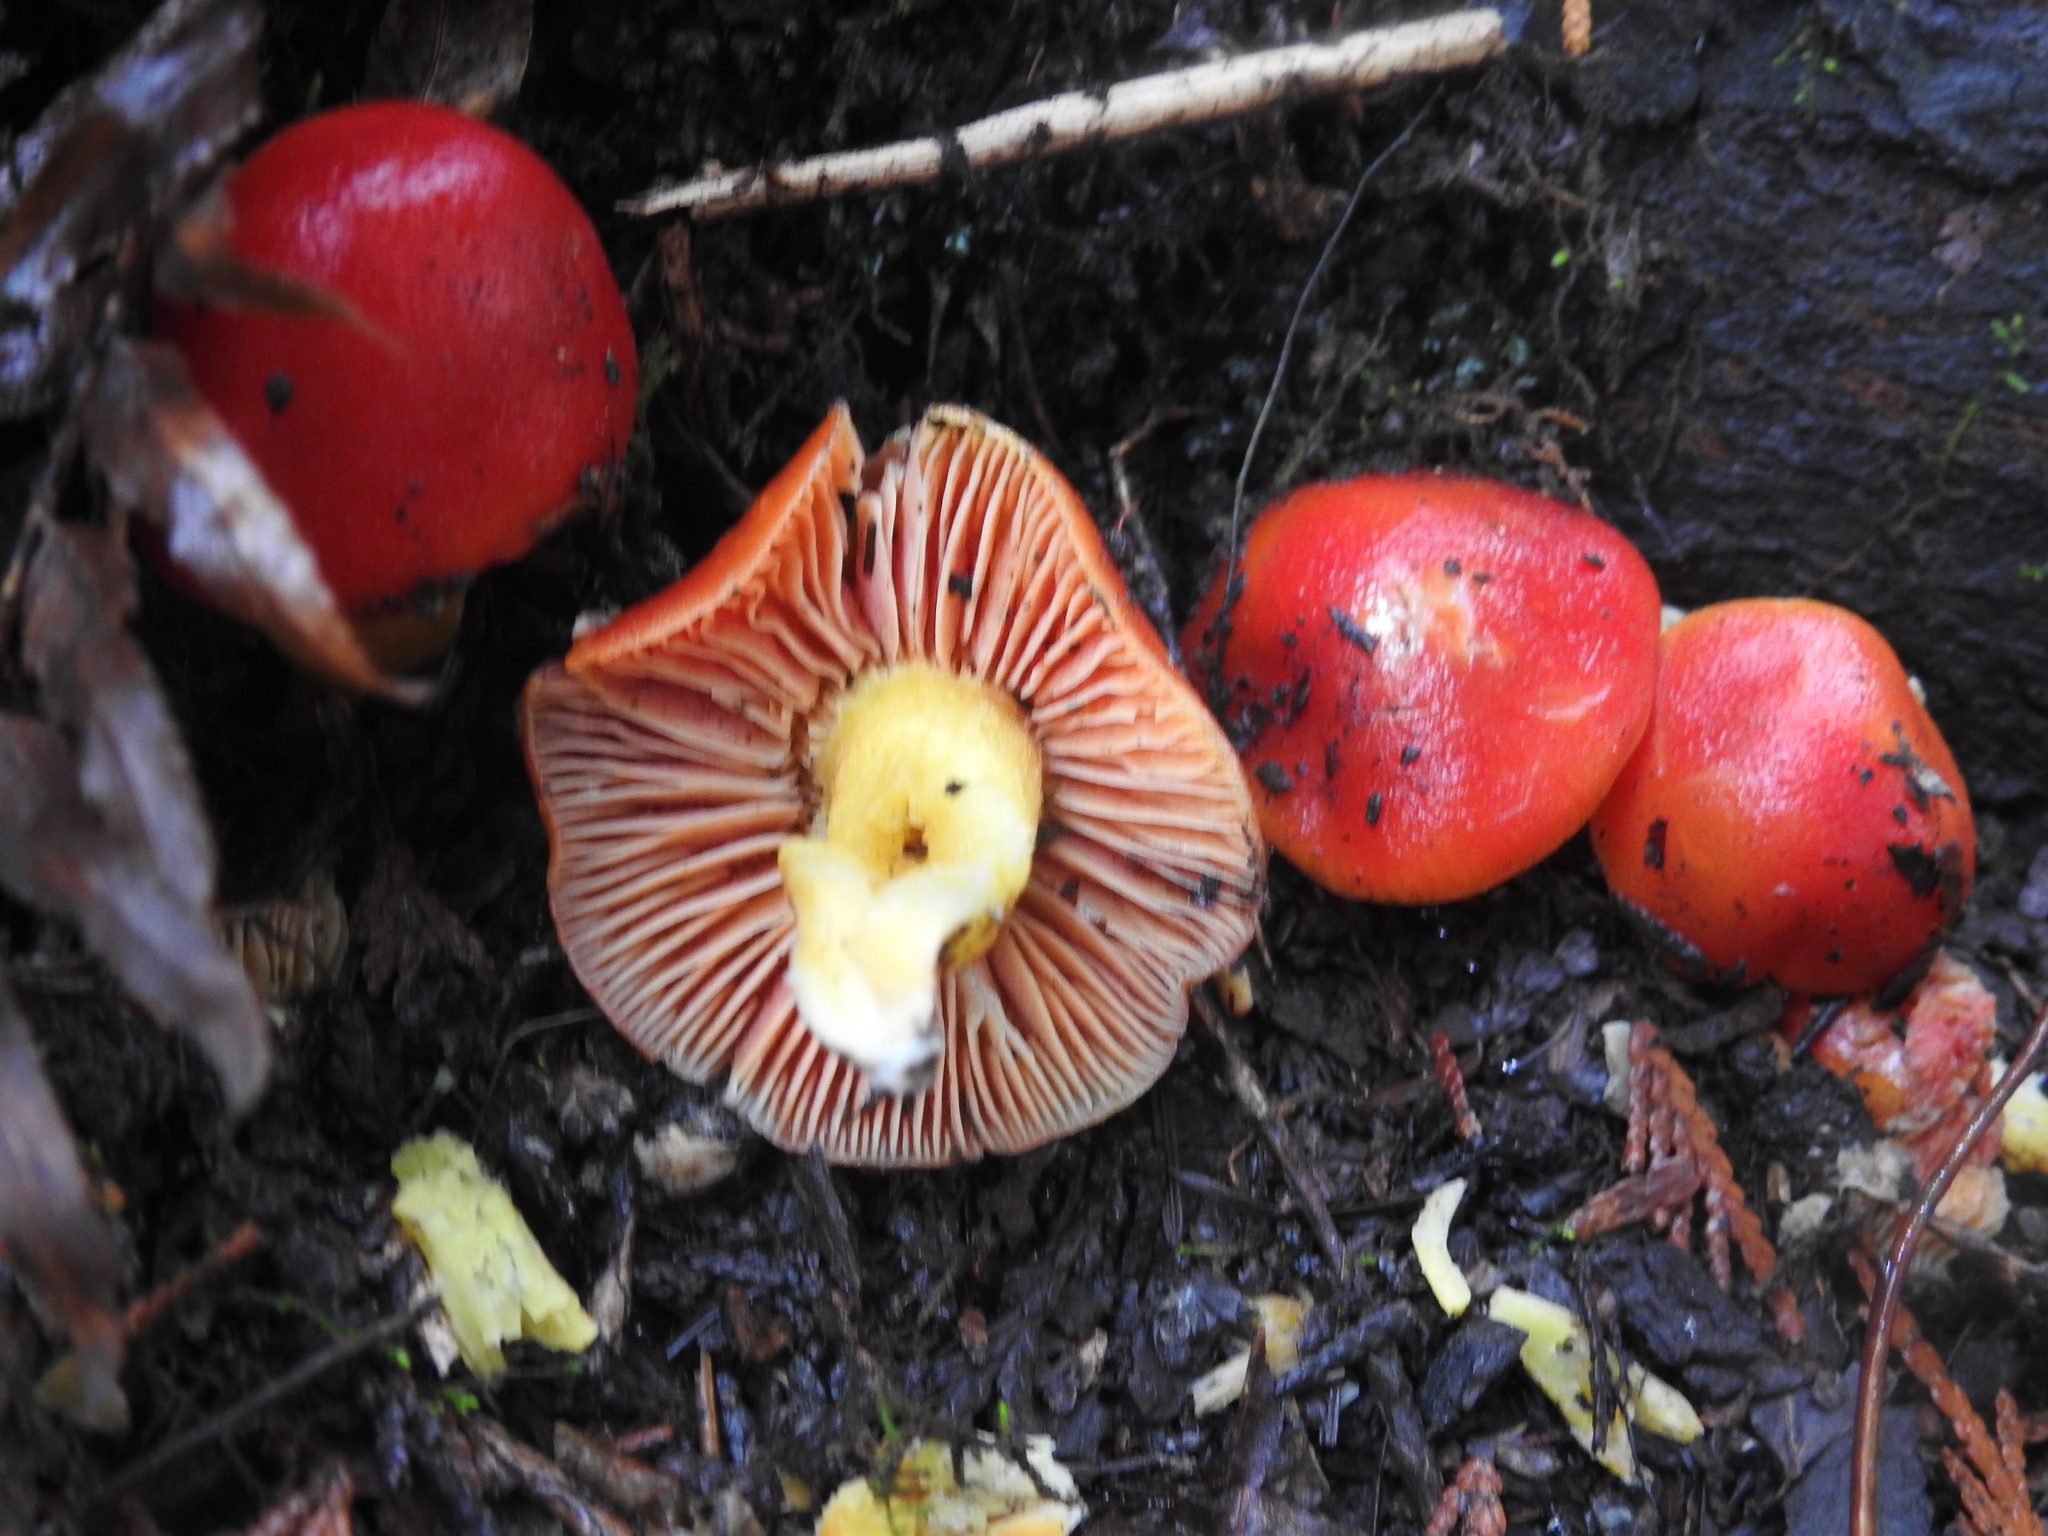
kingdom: Fungi
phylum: Basidiomycota
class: Agaricomycetes
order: Agaricales
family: Hygrophoraceae
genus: Hygrocybe
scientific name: Hygrocybe laetissima
